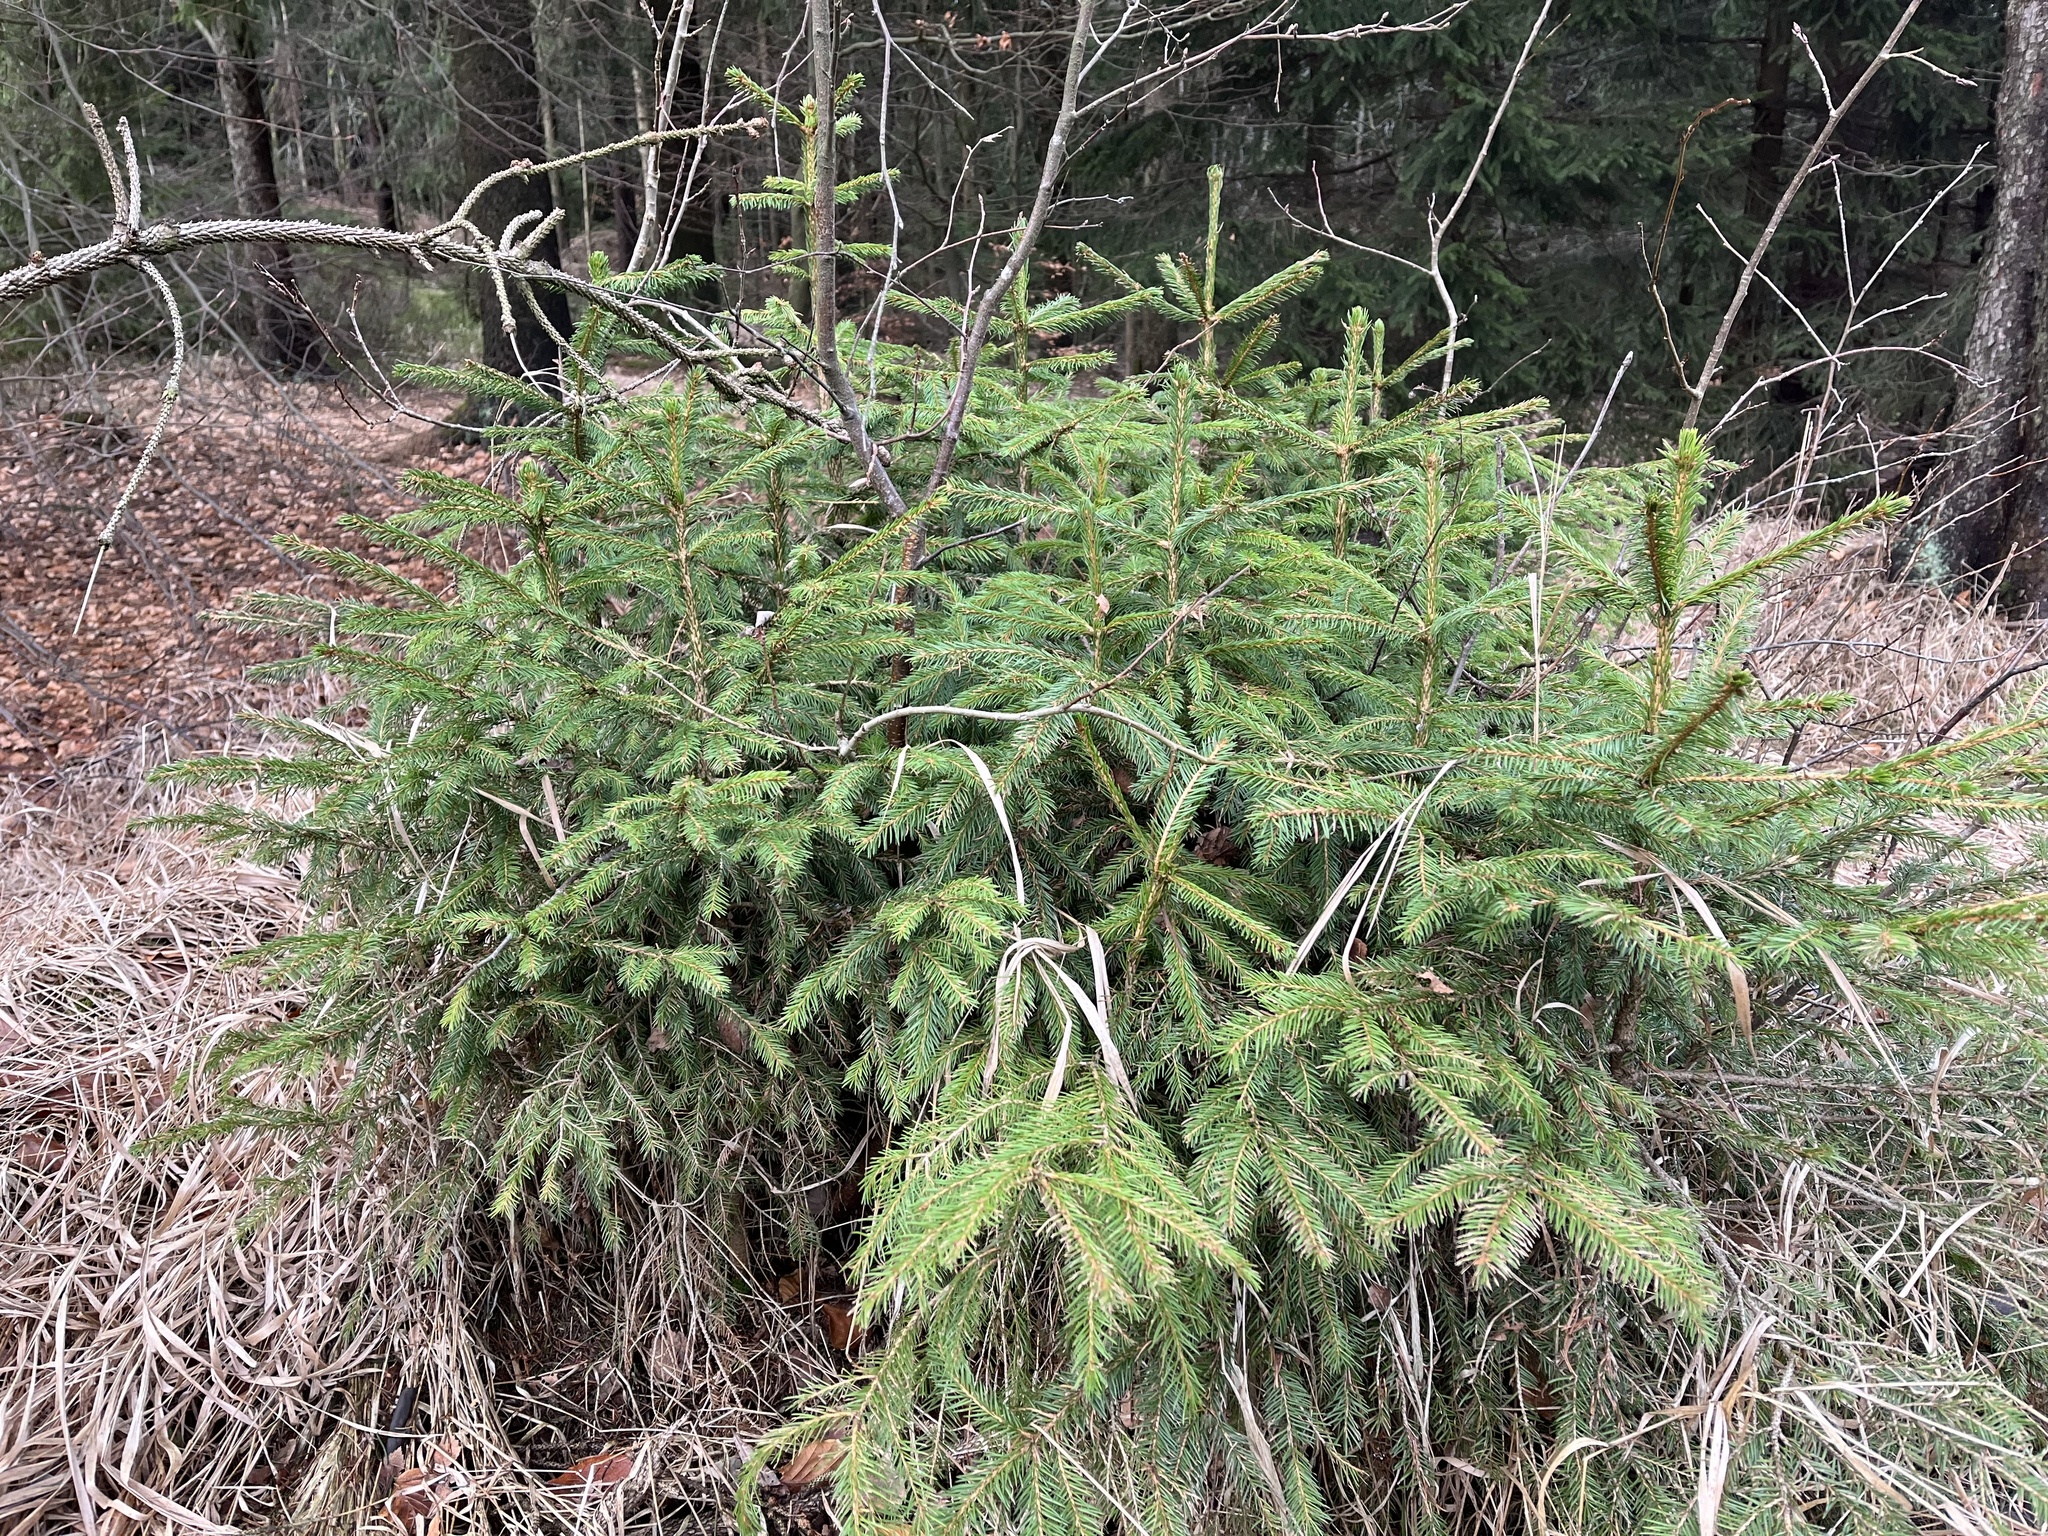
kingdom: Plantae
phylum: Tracheophyta
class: Pinopsida
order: Pinales
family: Pinaceae
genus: Picea
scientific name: Picea abies
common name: Norway spruce
